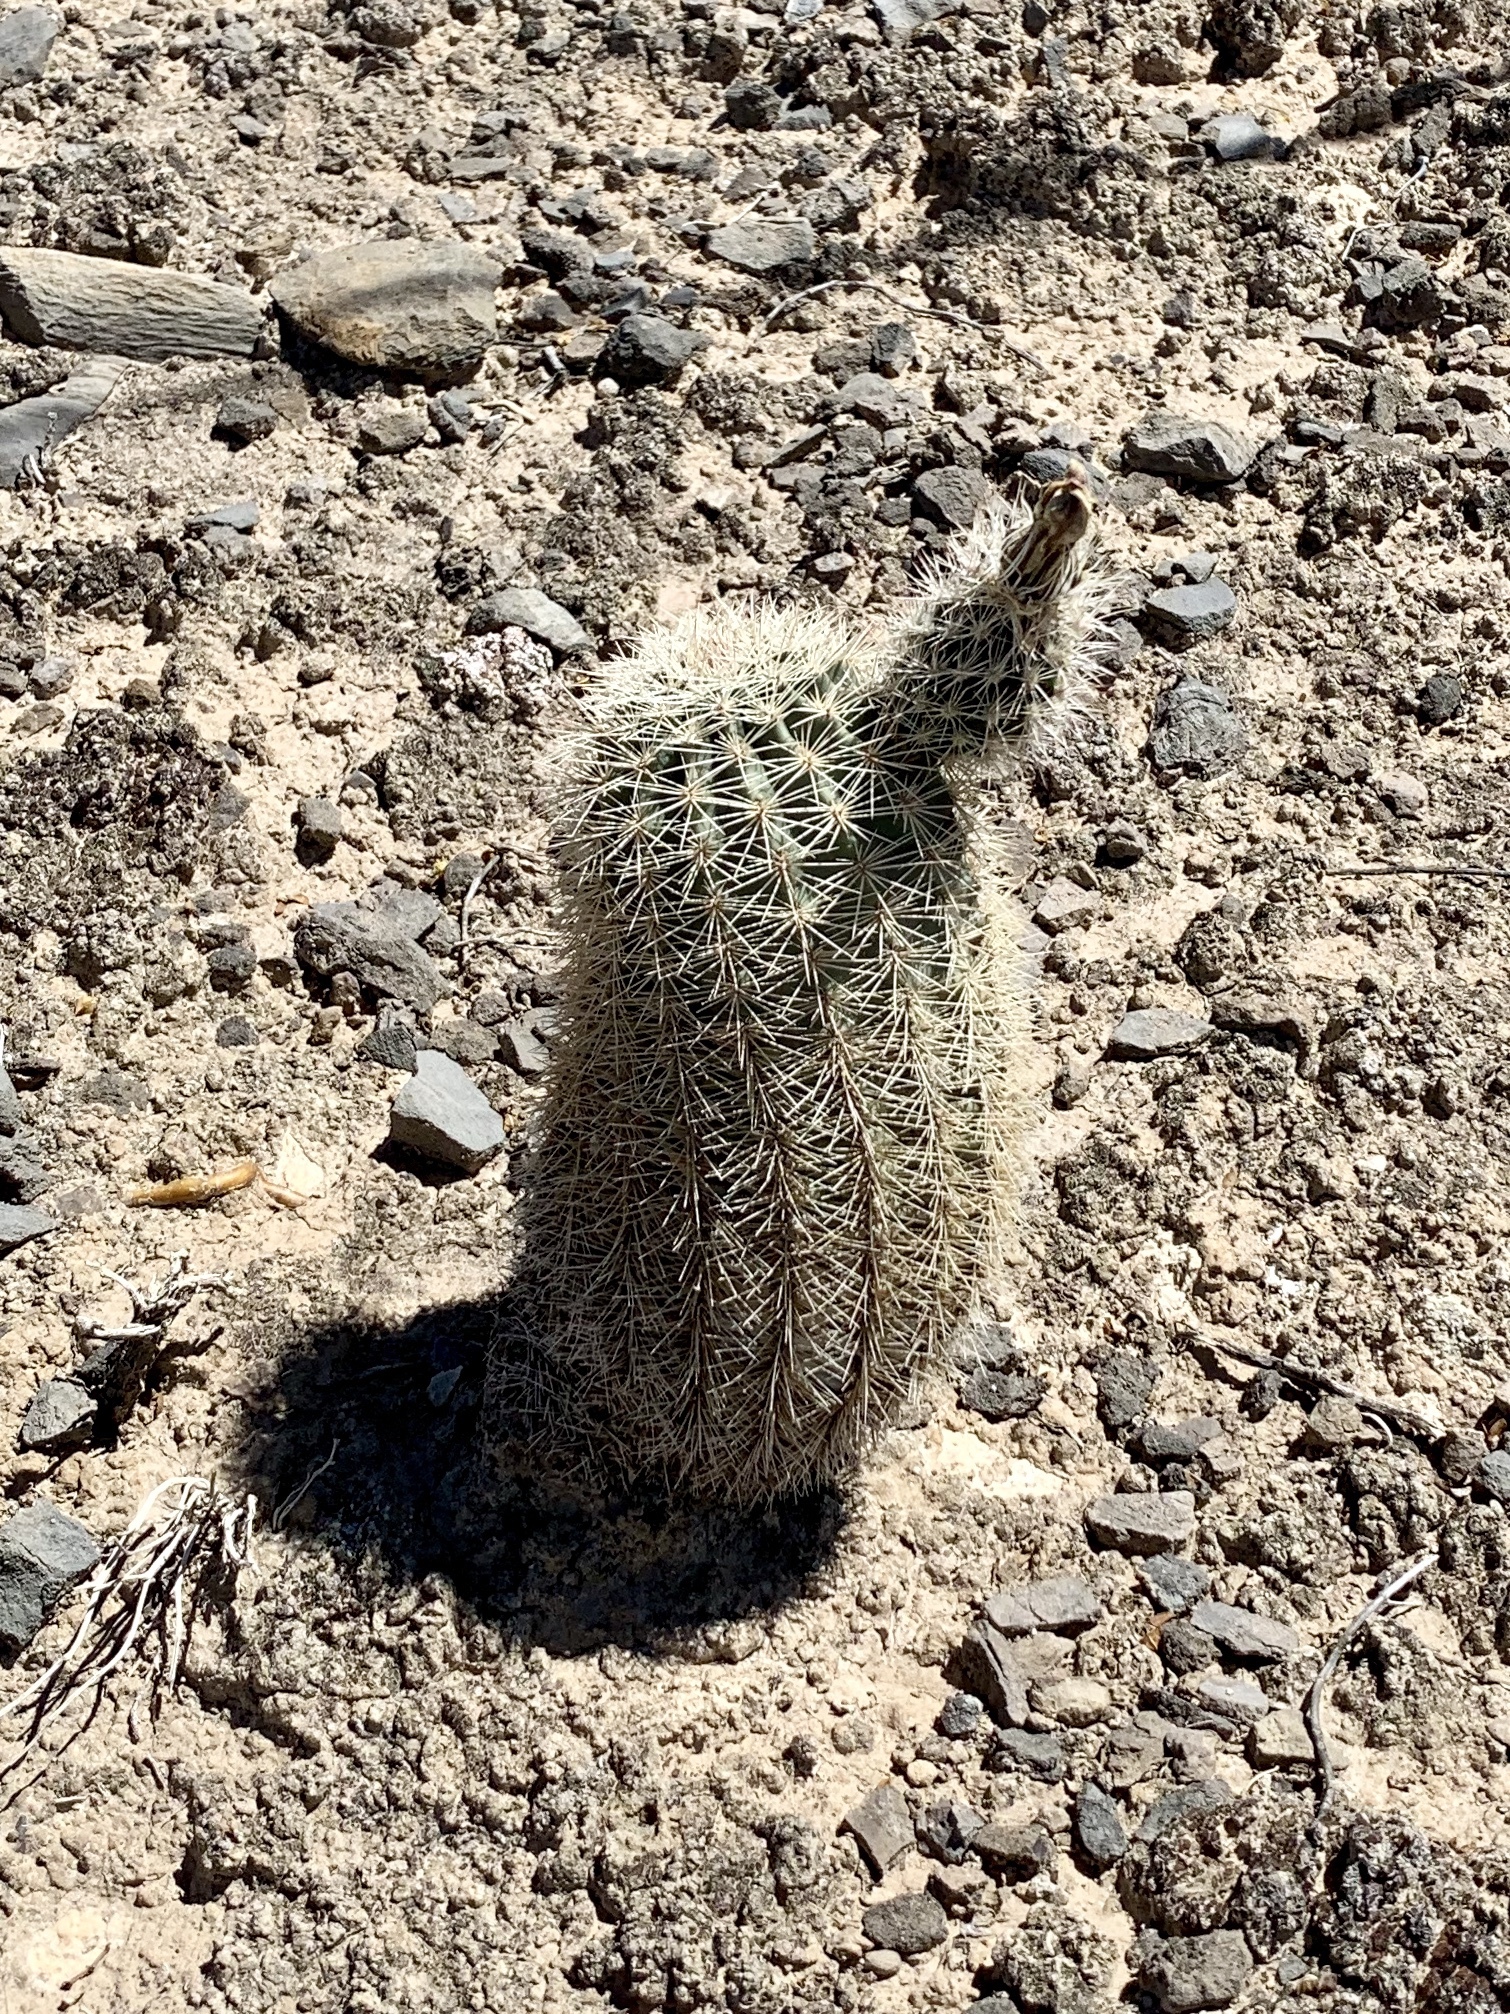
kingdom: Plantae
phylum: Tracheophyta
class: Magnoliopsida
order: Caryophyllales
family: Cactaceae
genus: Echinocereus
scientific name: Echinocereus dasyacanthus
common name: Spiny hedgehog cactus
